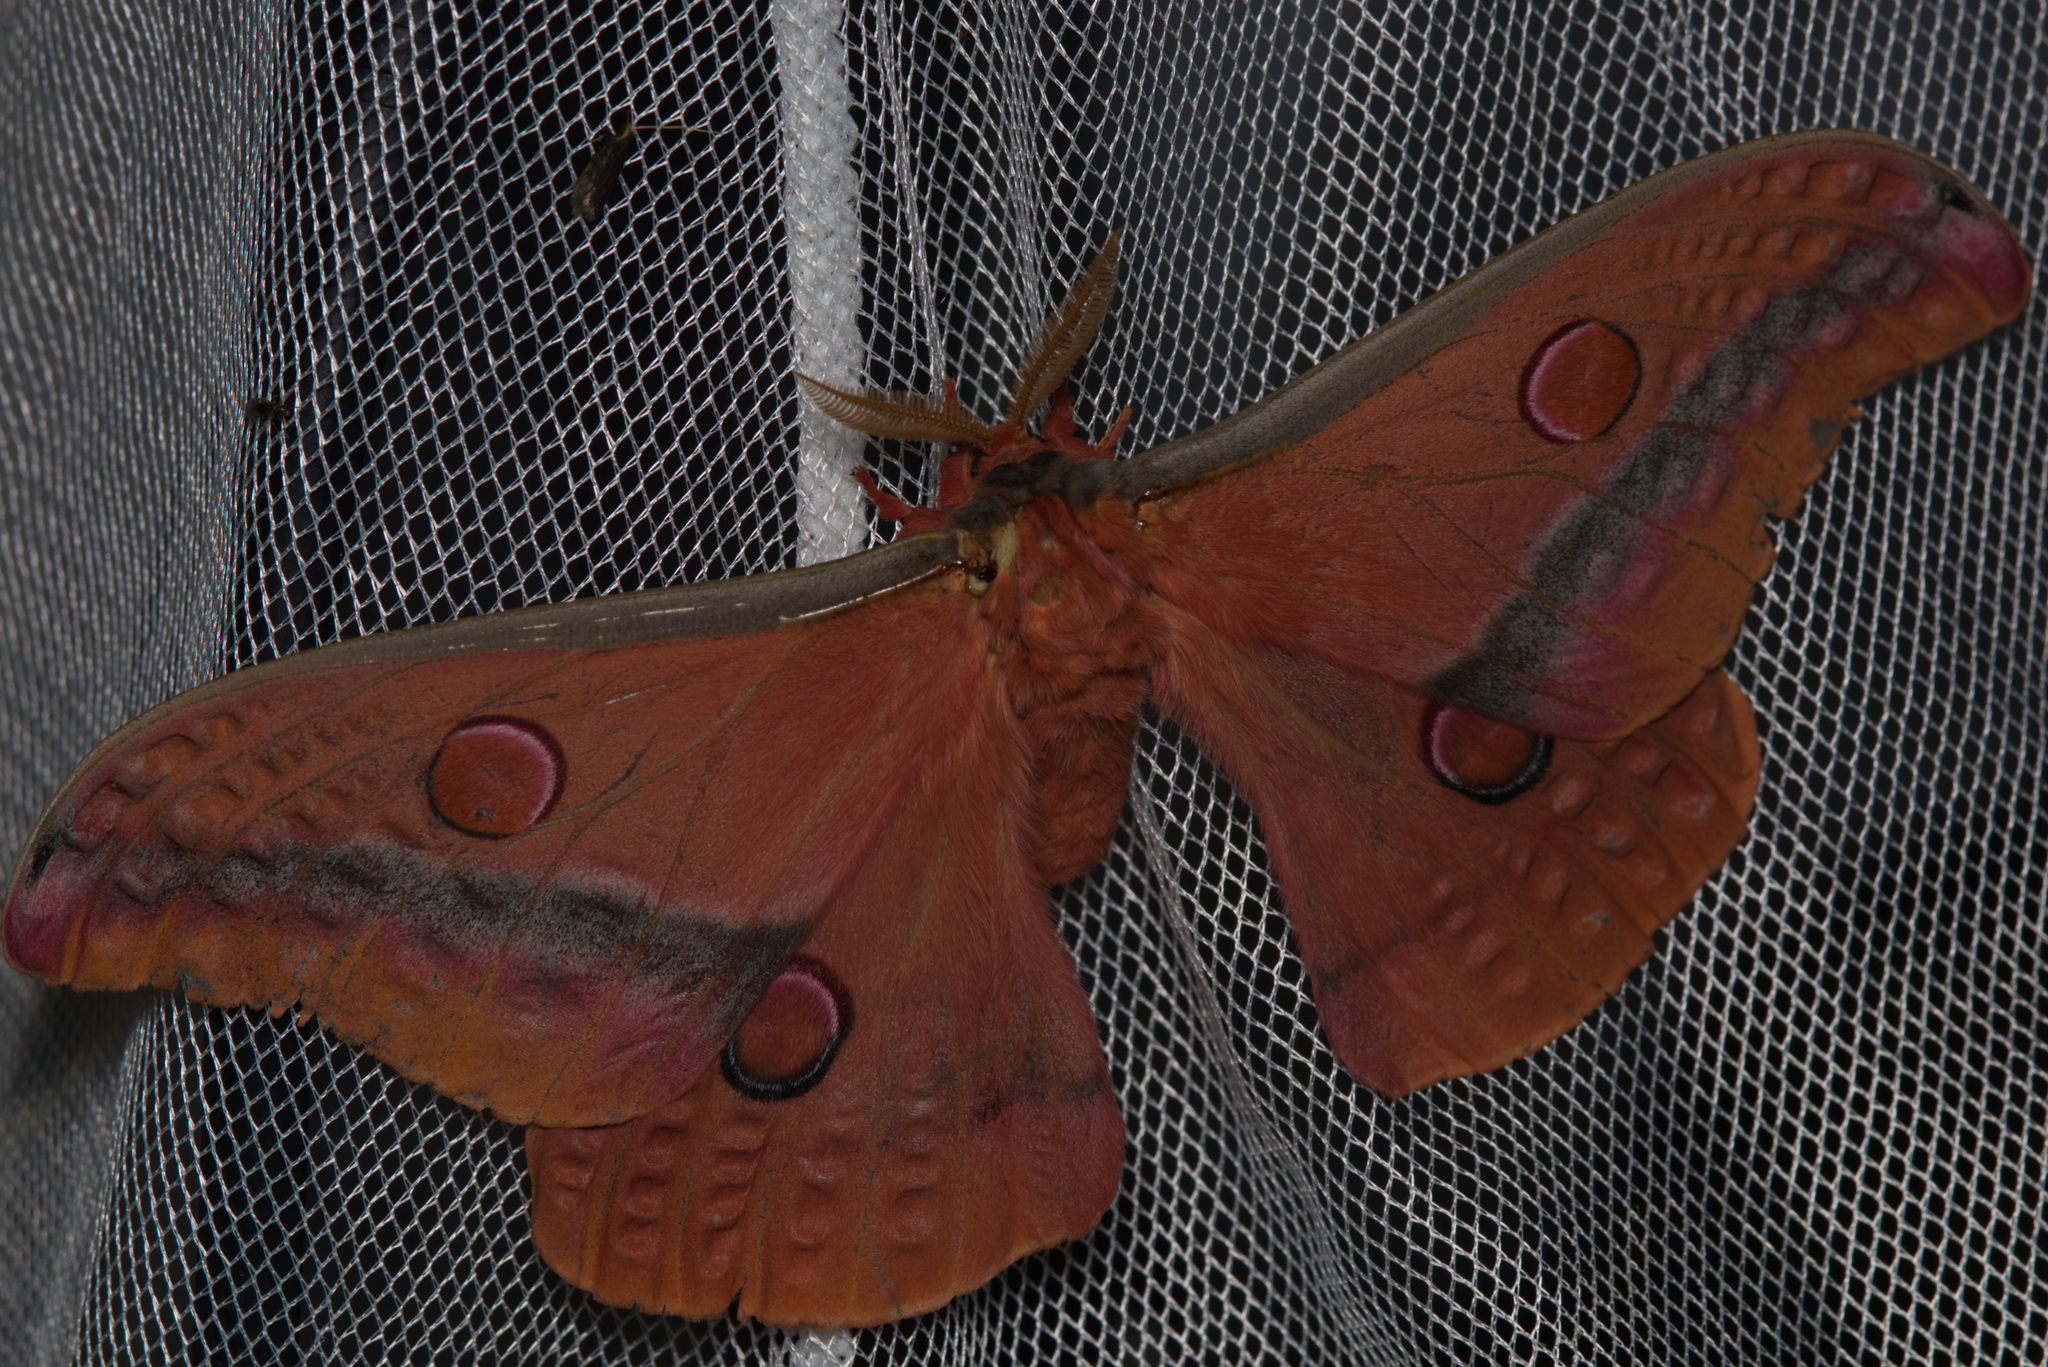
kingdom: Animalia
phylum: Arthropoda
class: Insecta
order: Lepidoptera
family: Saturniidae
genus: Opodiphthera
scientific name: Opodiphthera
